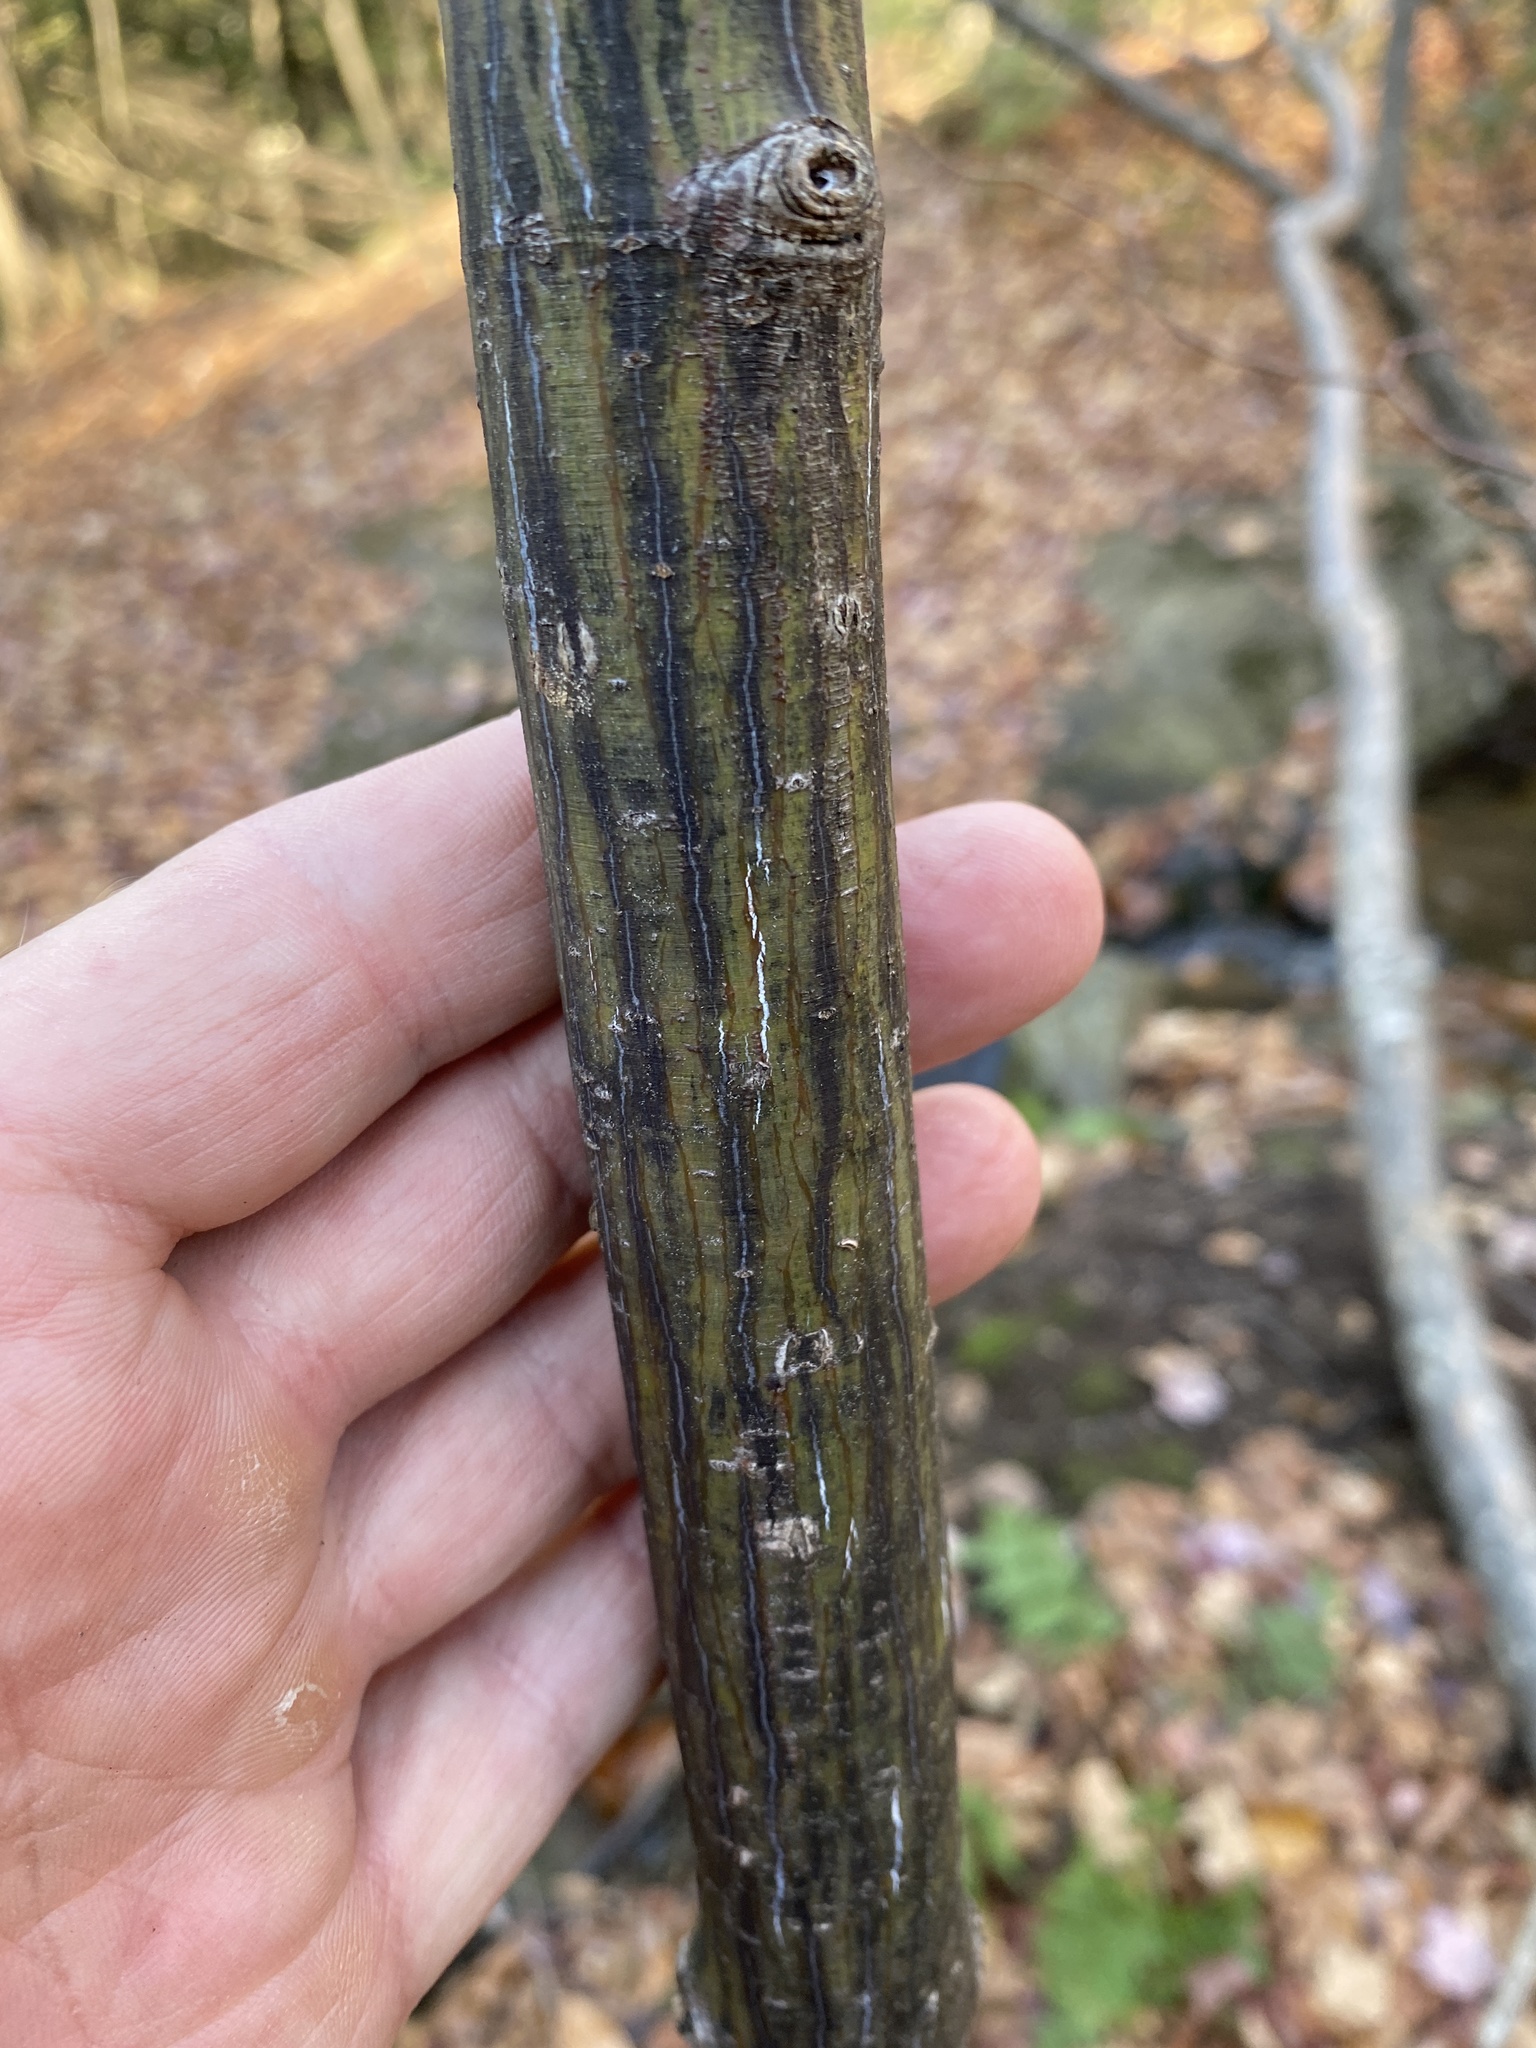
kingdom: Plantae
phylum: Tracheophyta
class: Magnoliopsida
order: Sapindales
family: Sapindaceae
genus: Acer
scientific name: Acer pensylvanicum
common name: Moosewood
